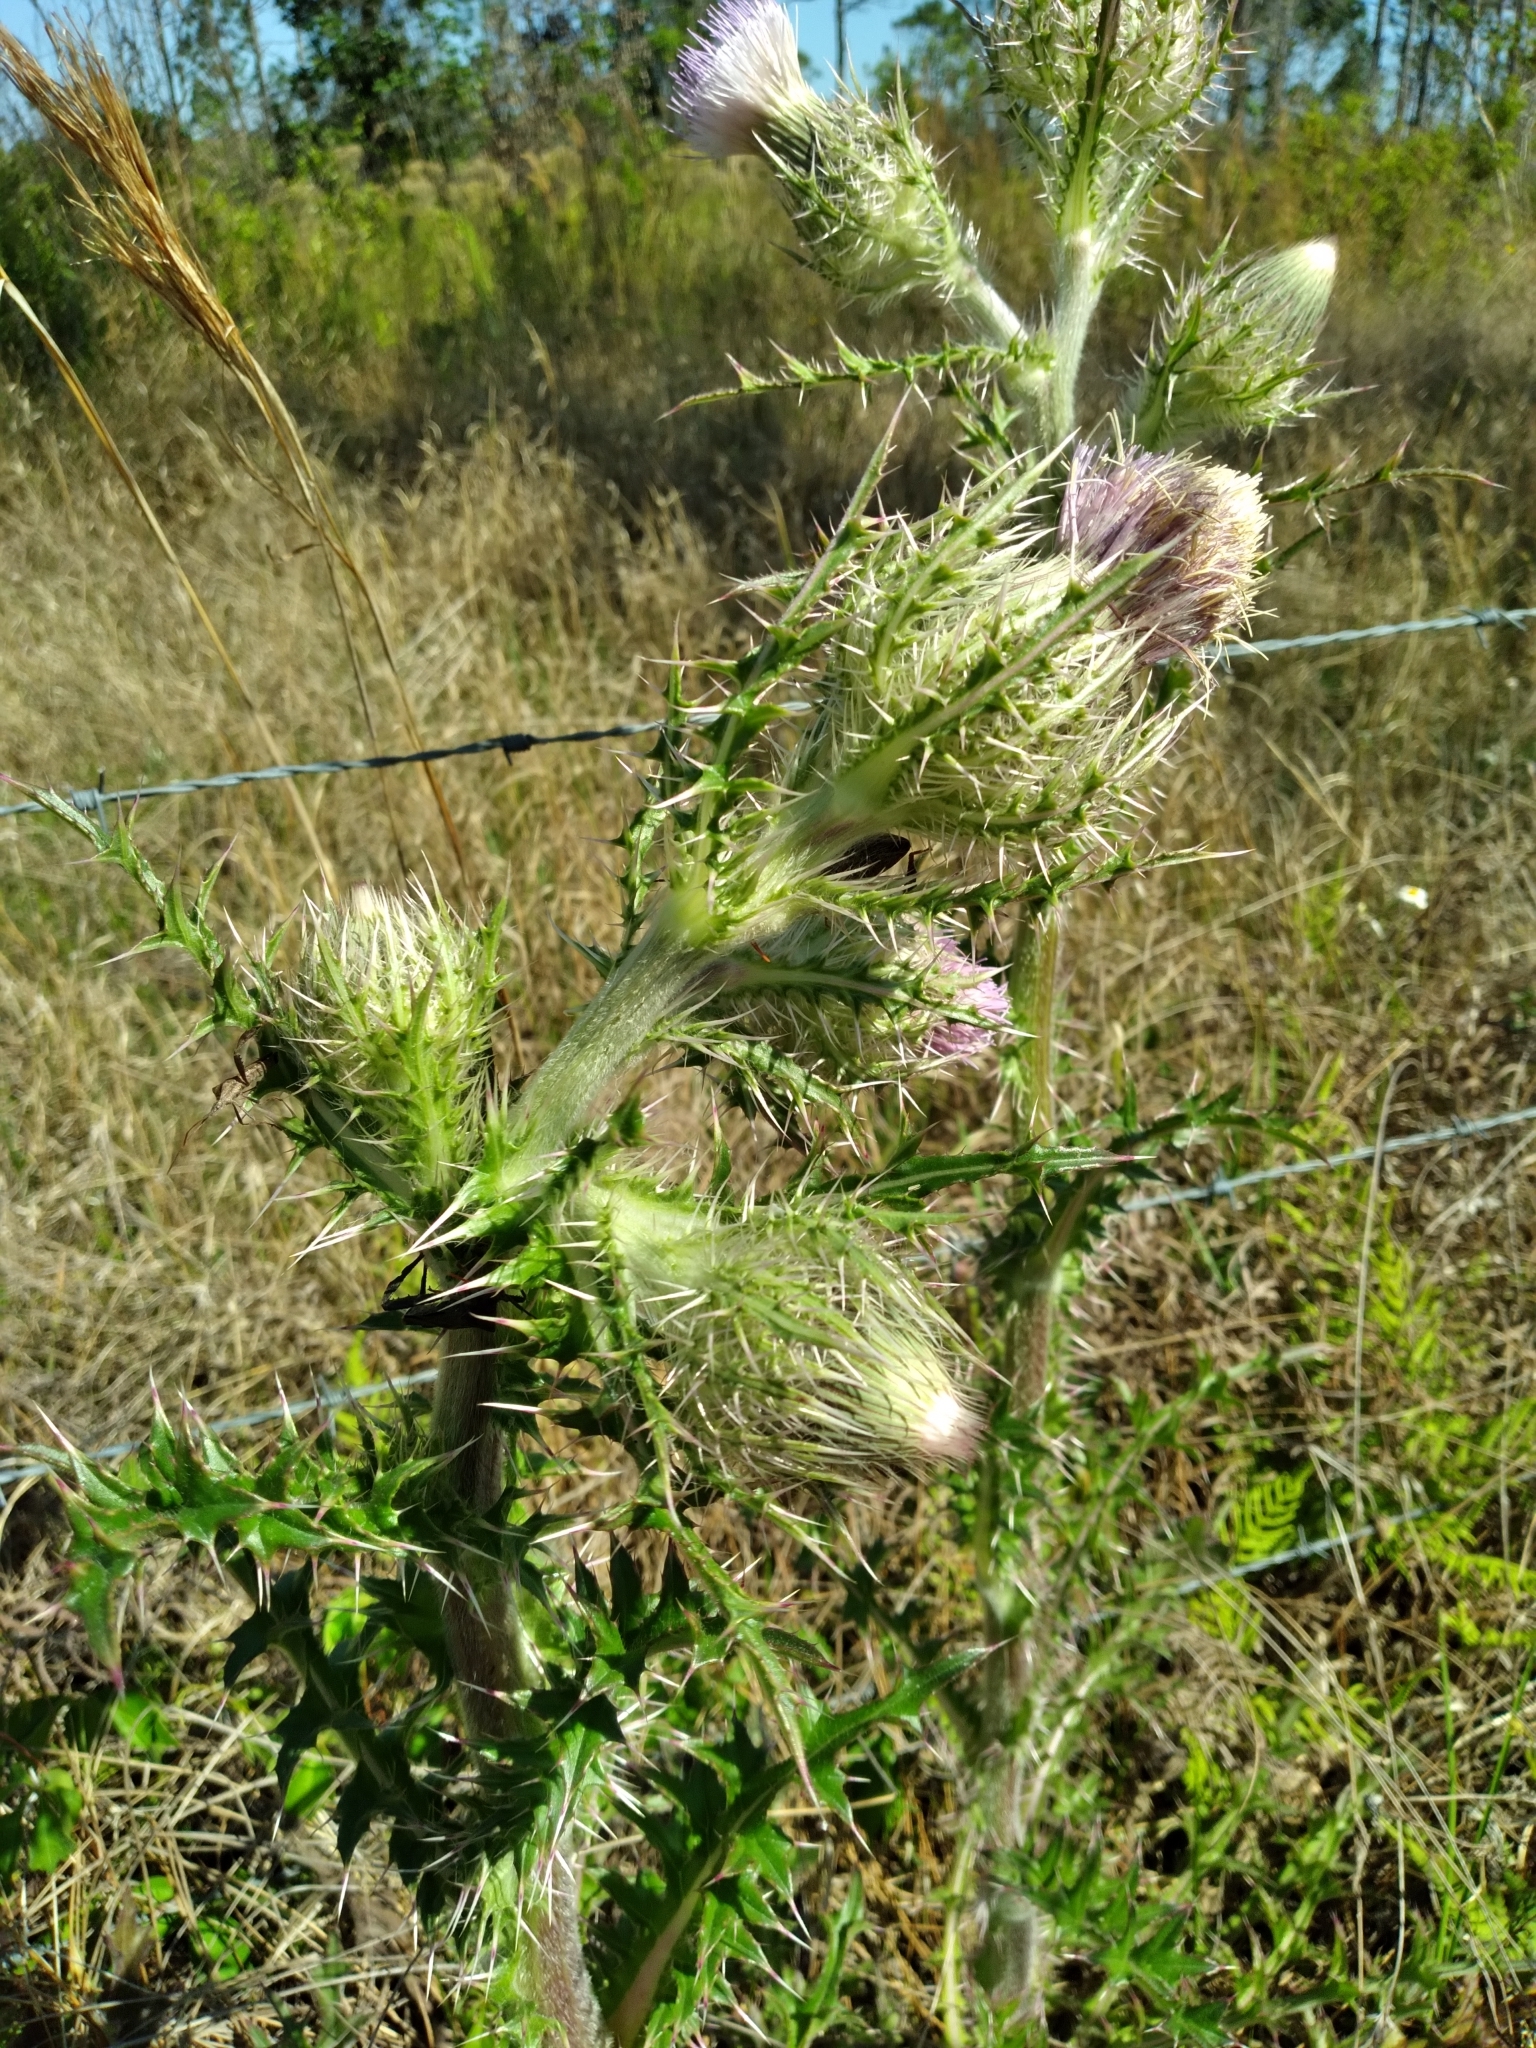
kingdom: Plantae
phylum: Tracheophyta
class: Magnoliopsida
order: Asterales
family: Asteraceae
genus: Cirsium
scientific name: Cirsium horridulum
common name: Bristly thistle
